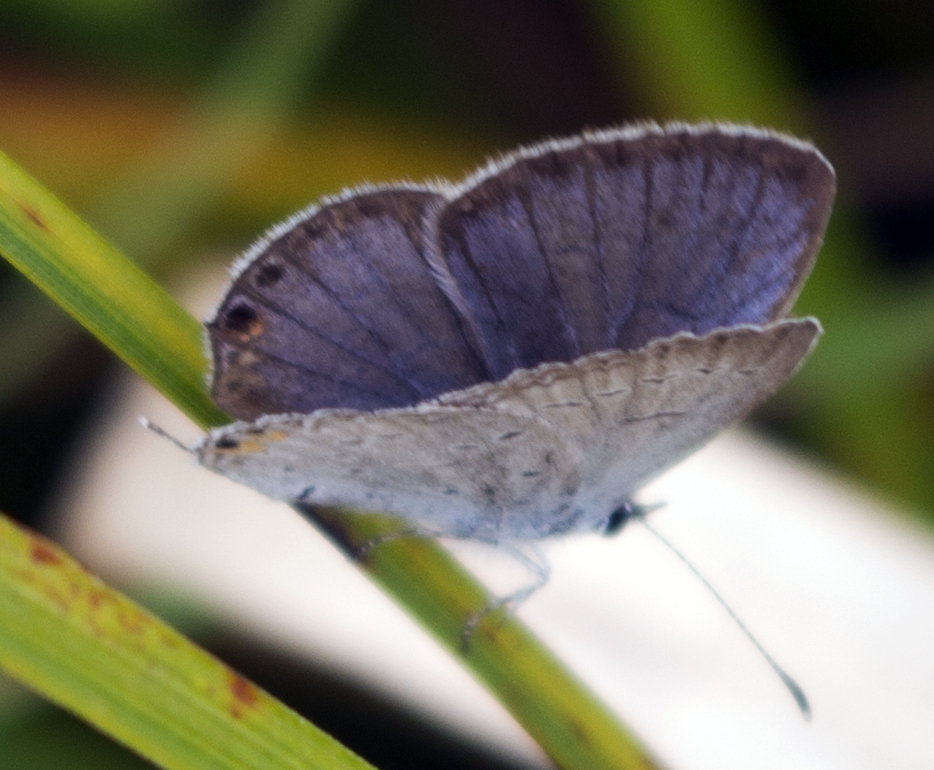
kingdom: Animalia
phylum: Arthropoda
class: Insecta
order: Lepidoptera
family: Lycaenidae
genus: Elkalyce
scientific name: Elkalyce comyntas
